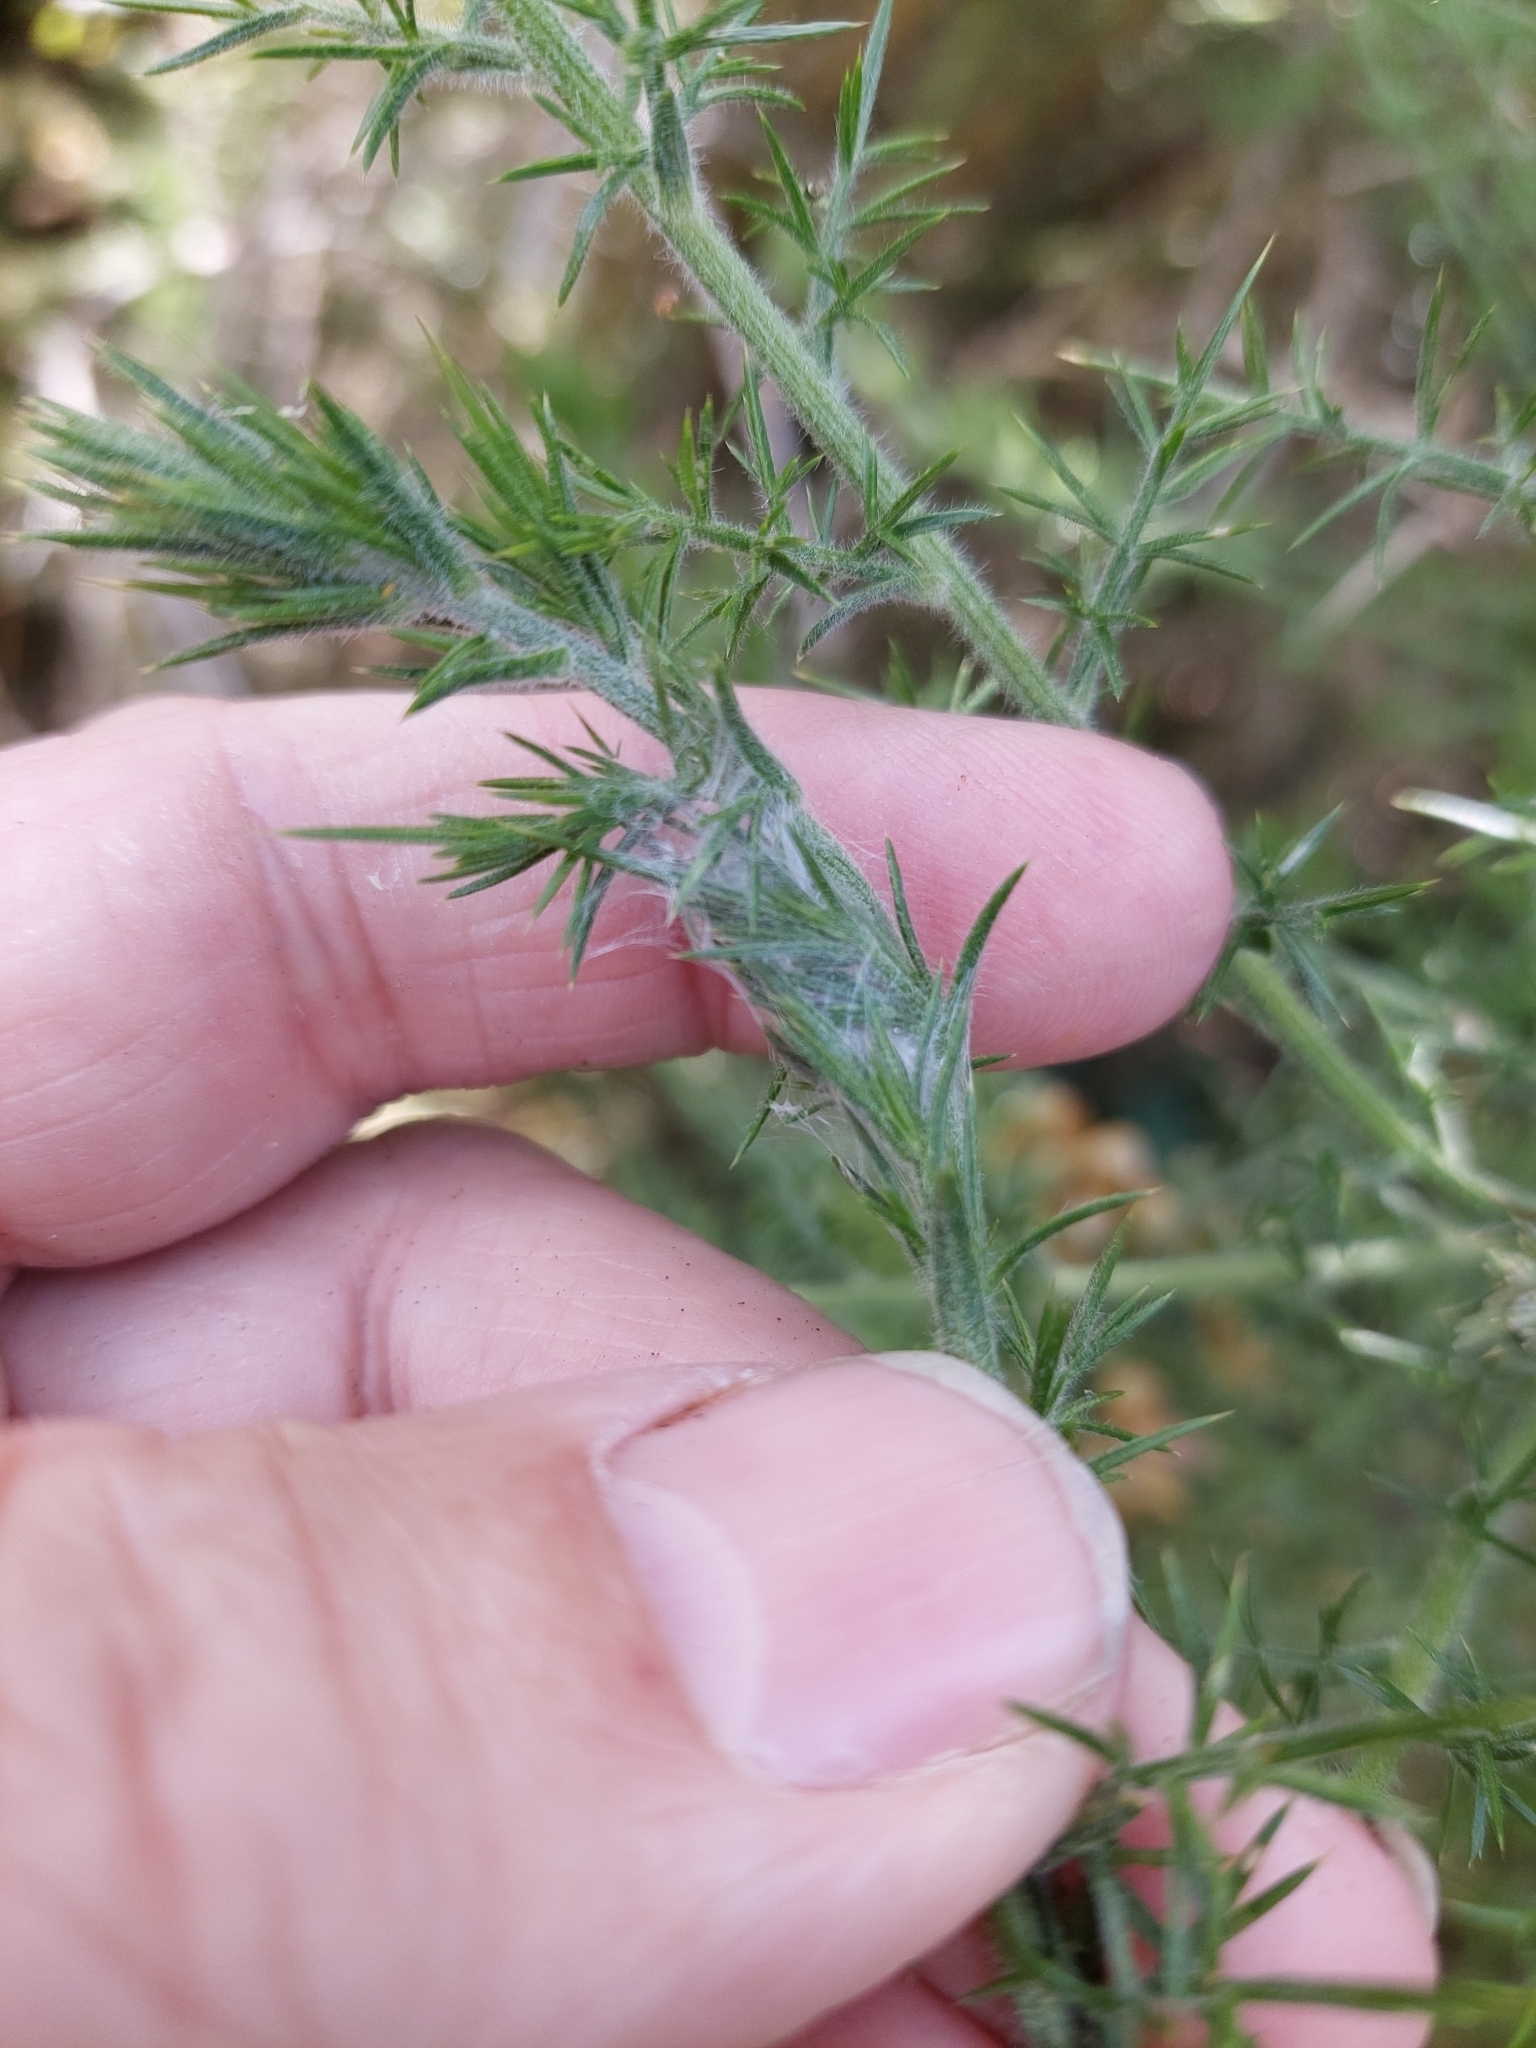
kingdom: Animalia
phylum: Arthropoda
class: Insecta
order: Lepidoptera
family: Depressariidae
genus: Agonopterix
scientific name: Agonopterix
